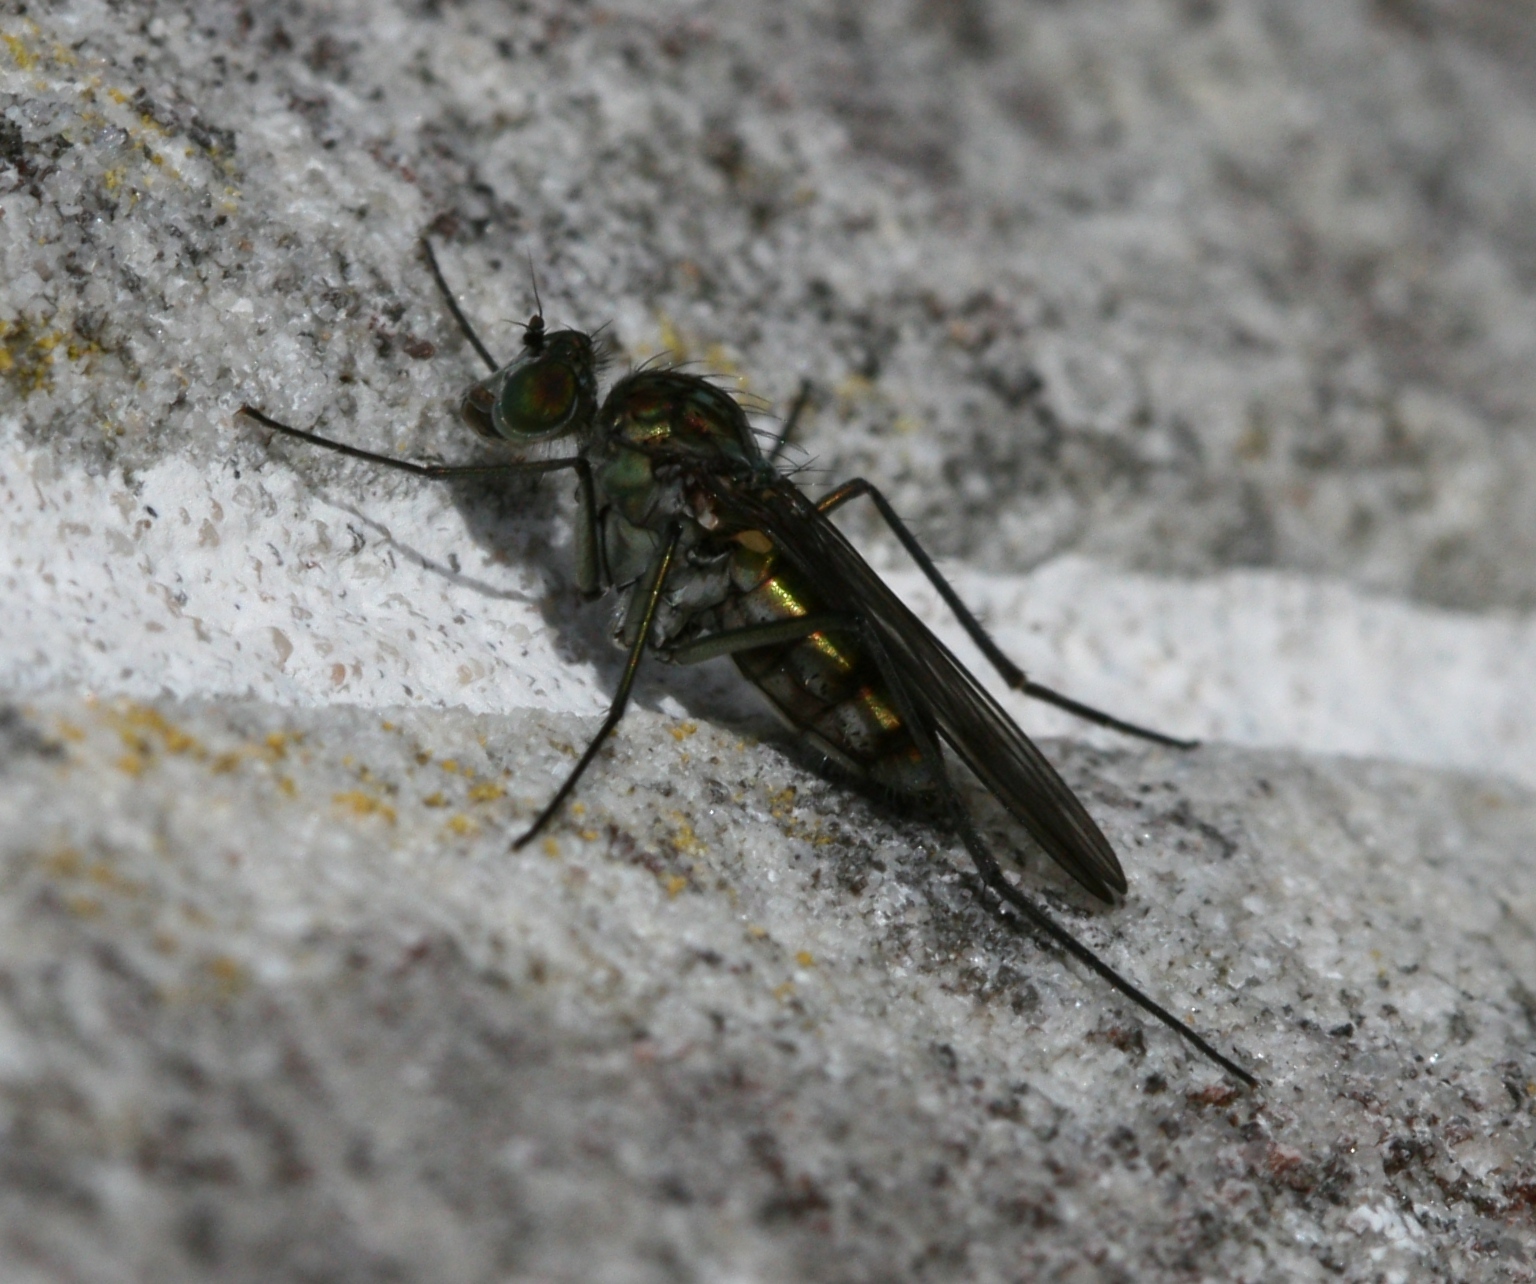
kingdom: Animalia
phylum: Arthropoda
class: Insecta
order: Diptera
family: Dolichopodidae
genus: Liancalus
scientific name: Liancalus virens
